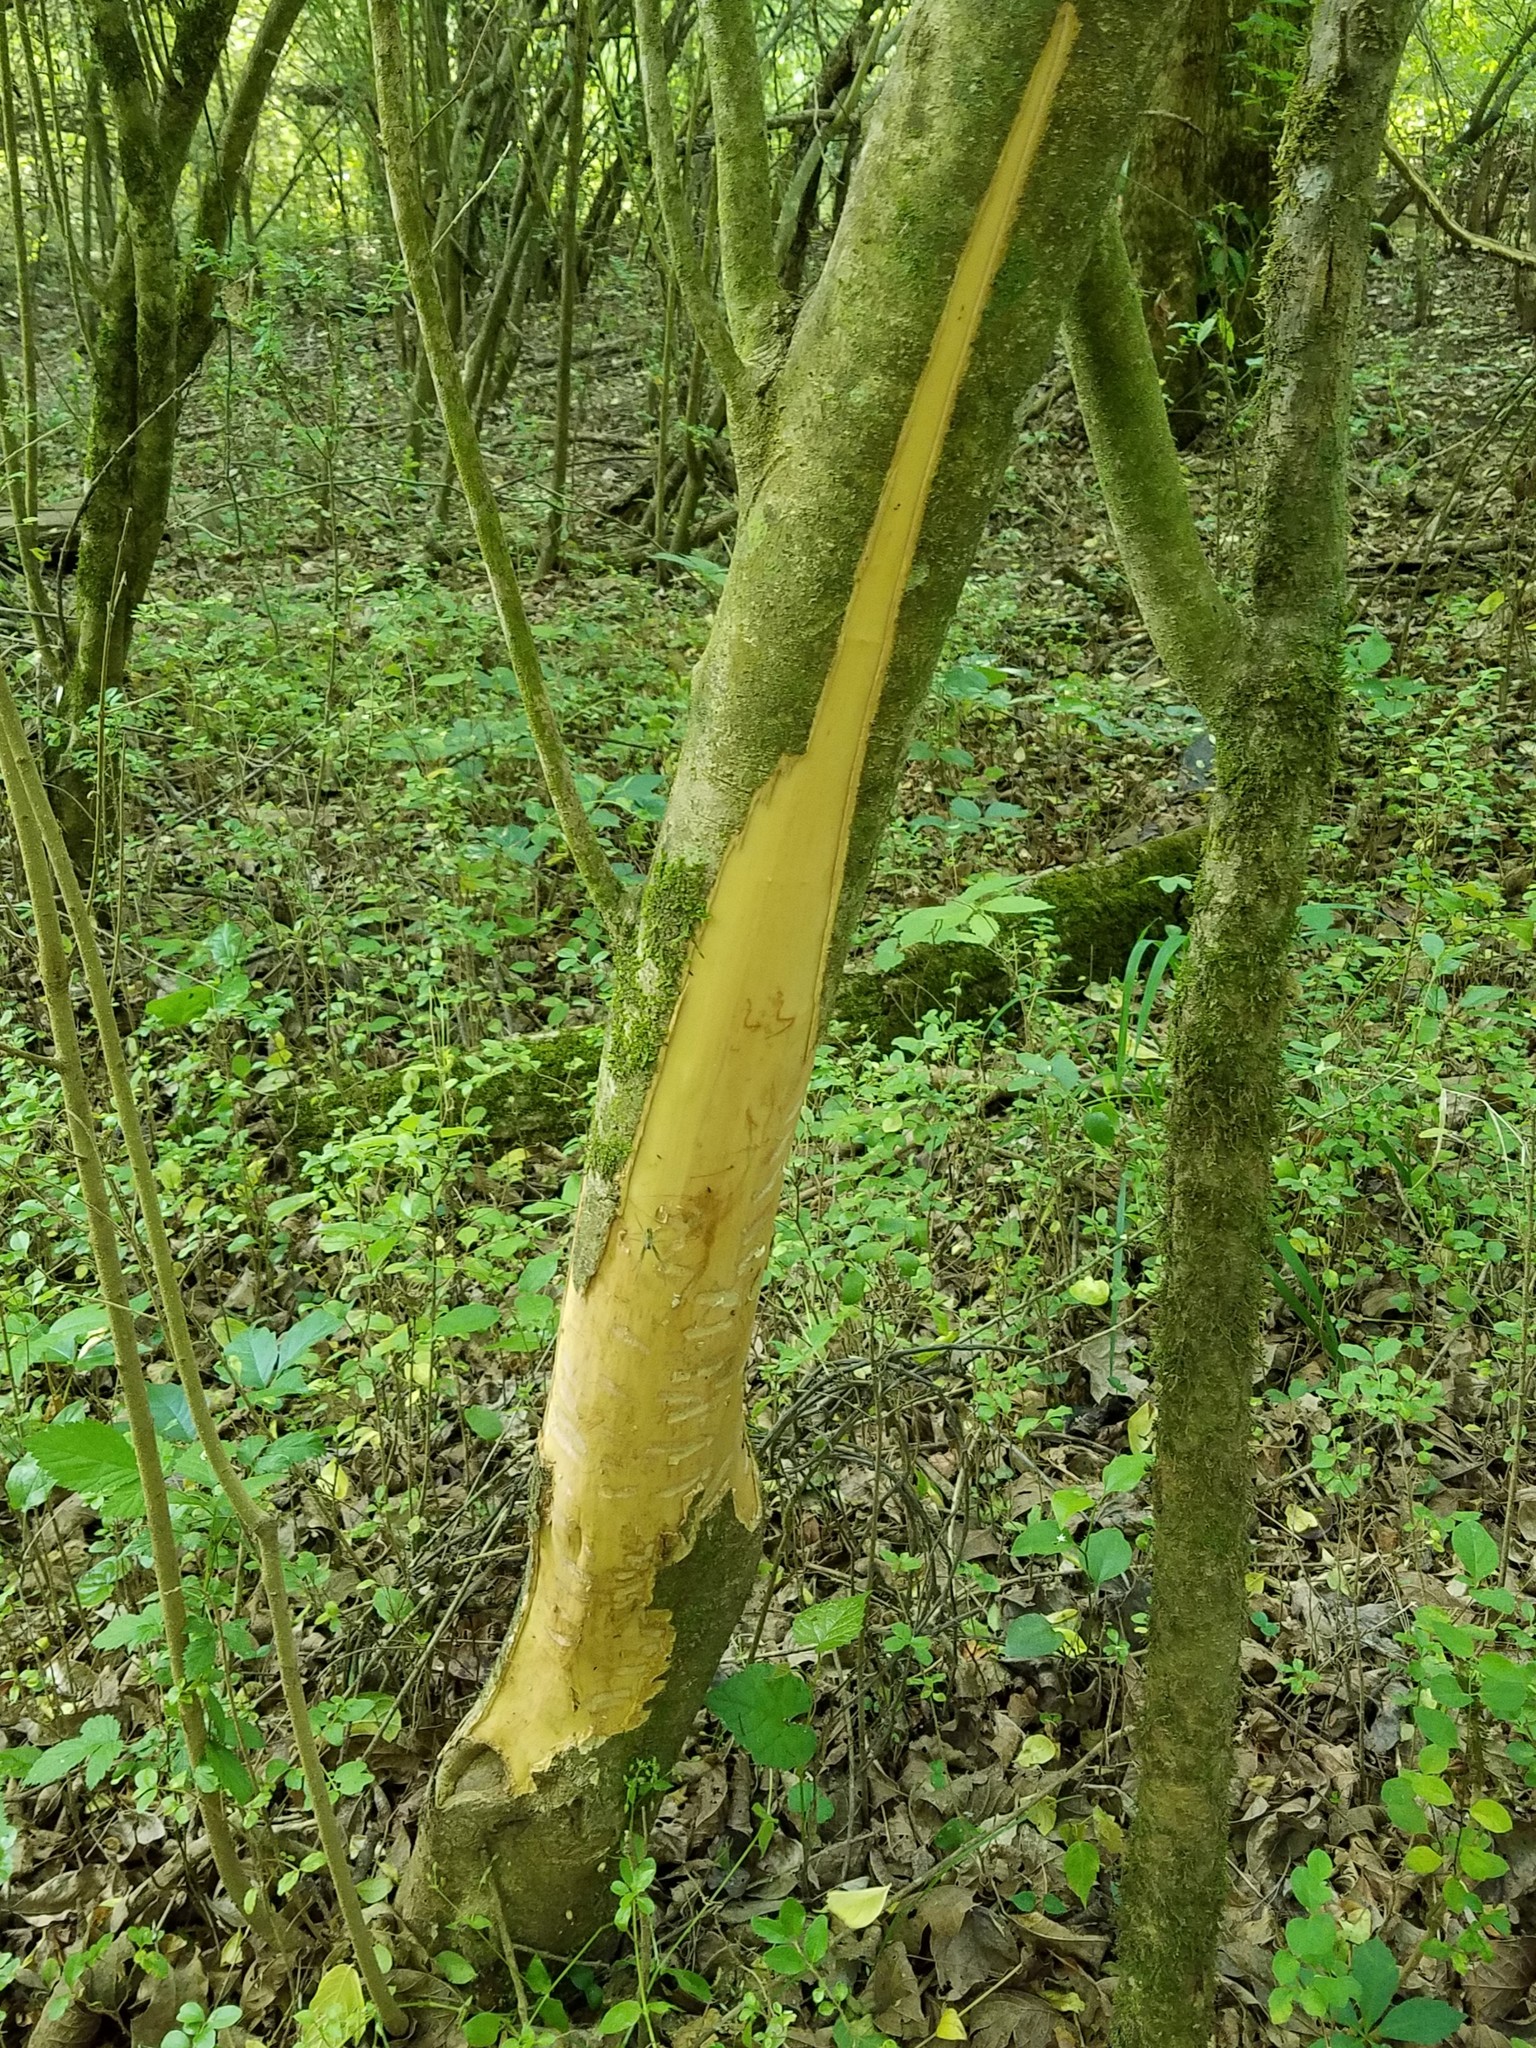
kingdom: Animalia
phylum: Chordata
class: Mammalia
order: Rodentia
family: Castoridae
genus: Castor
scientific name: Castor canadensis
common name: American beaver
